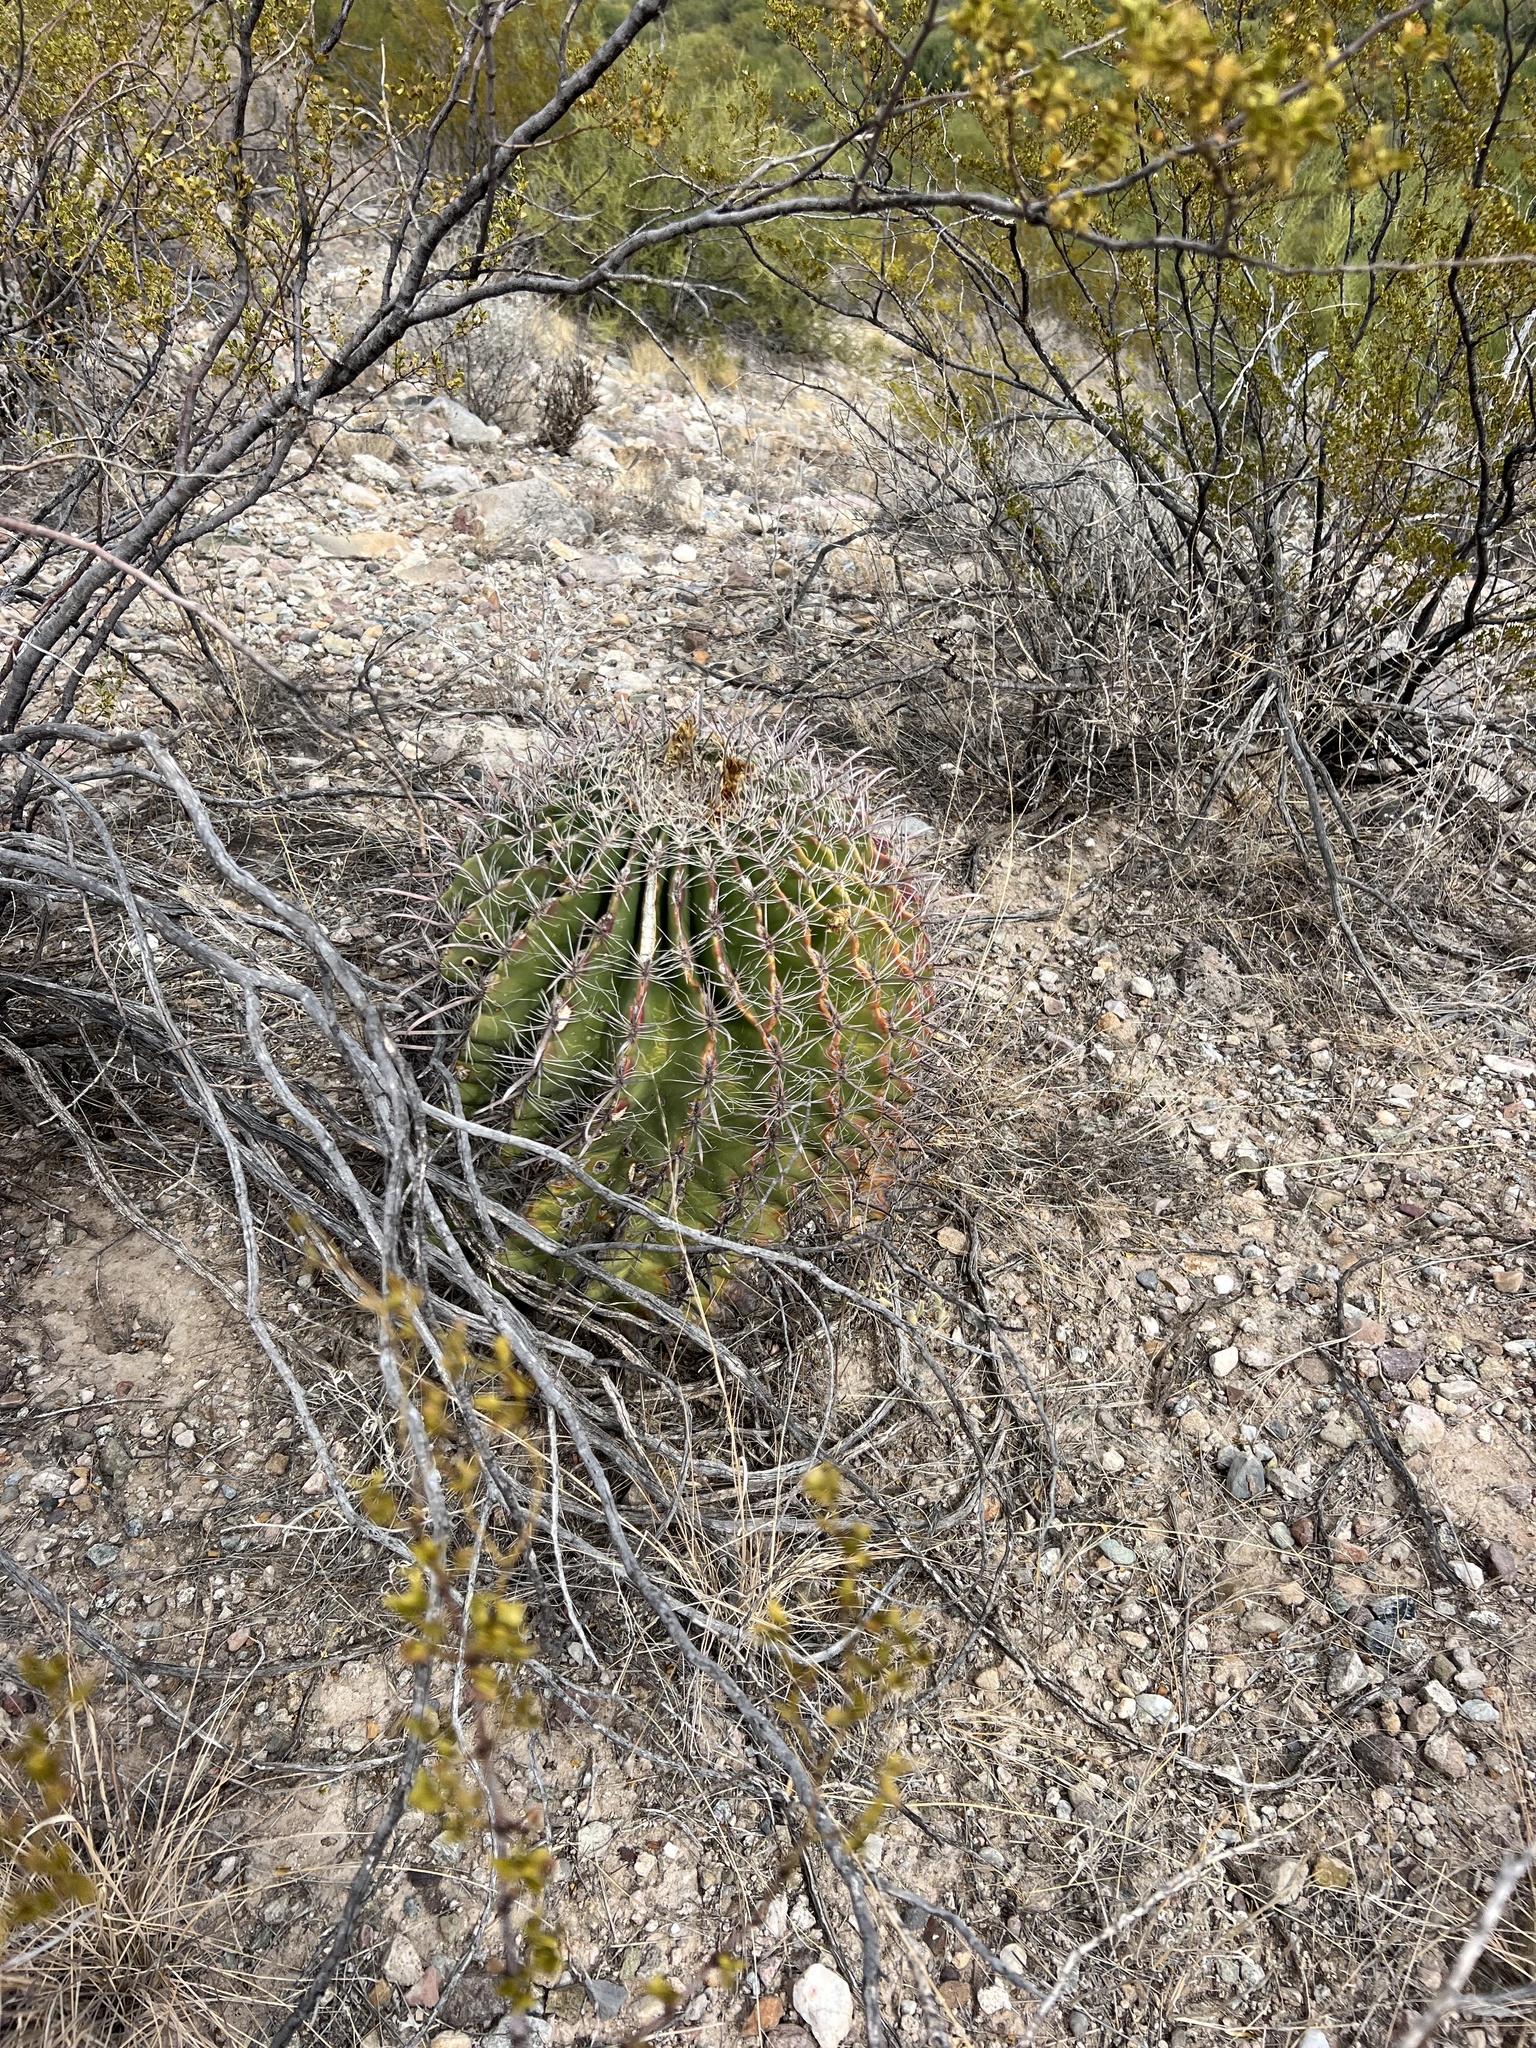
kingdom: Plantae
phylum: Tracheophyta
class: Magnoliopsida
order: Caryophyllales
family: Cactaceae
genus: Ferocactus
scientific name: Ferocactus wislizeni
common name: Candy barrel cactus
